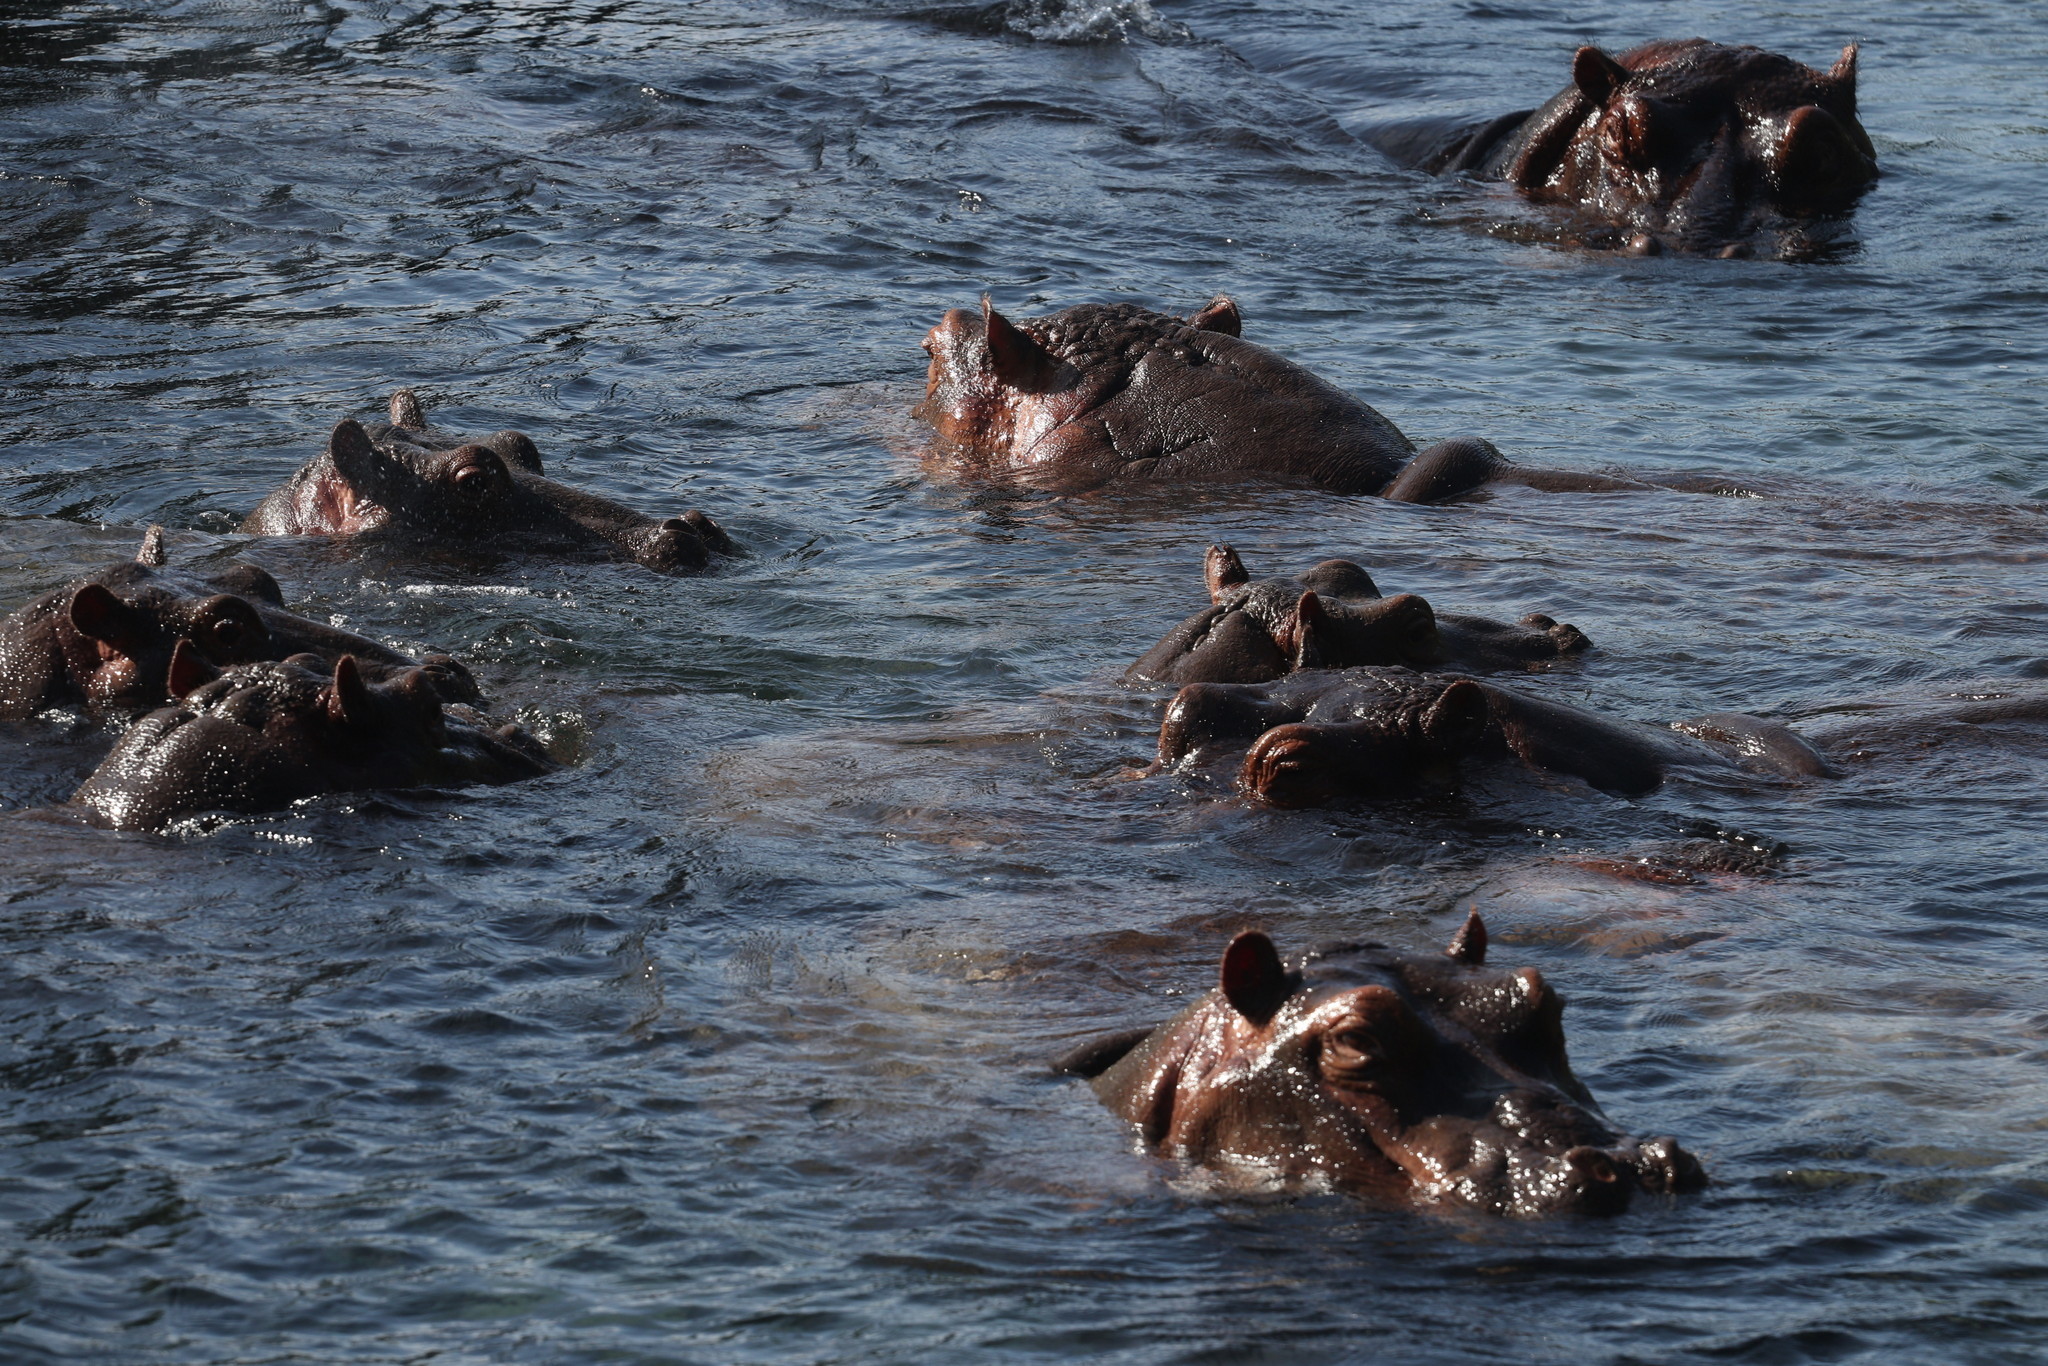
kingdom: Animalia
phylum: Chordata
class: Mammalia
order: Artiodactyla
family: Hippopotamidae
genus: Hippopotamus
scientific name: Hippopotamus amphibius
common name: Common hippopotamus
